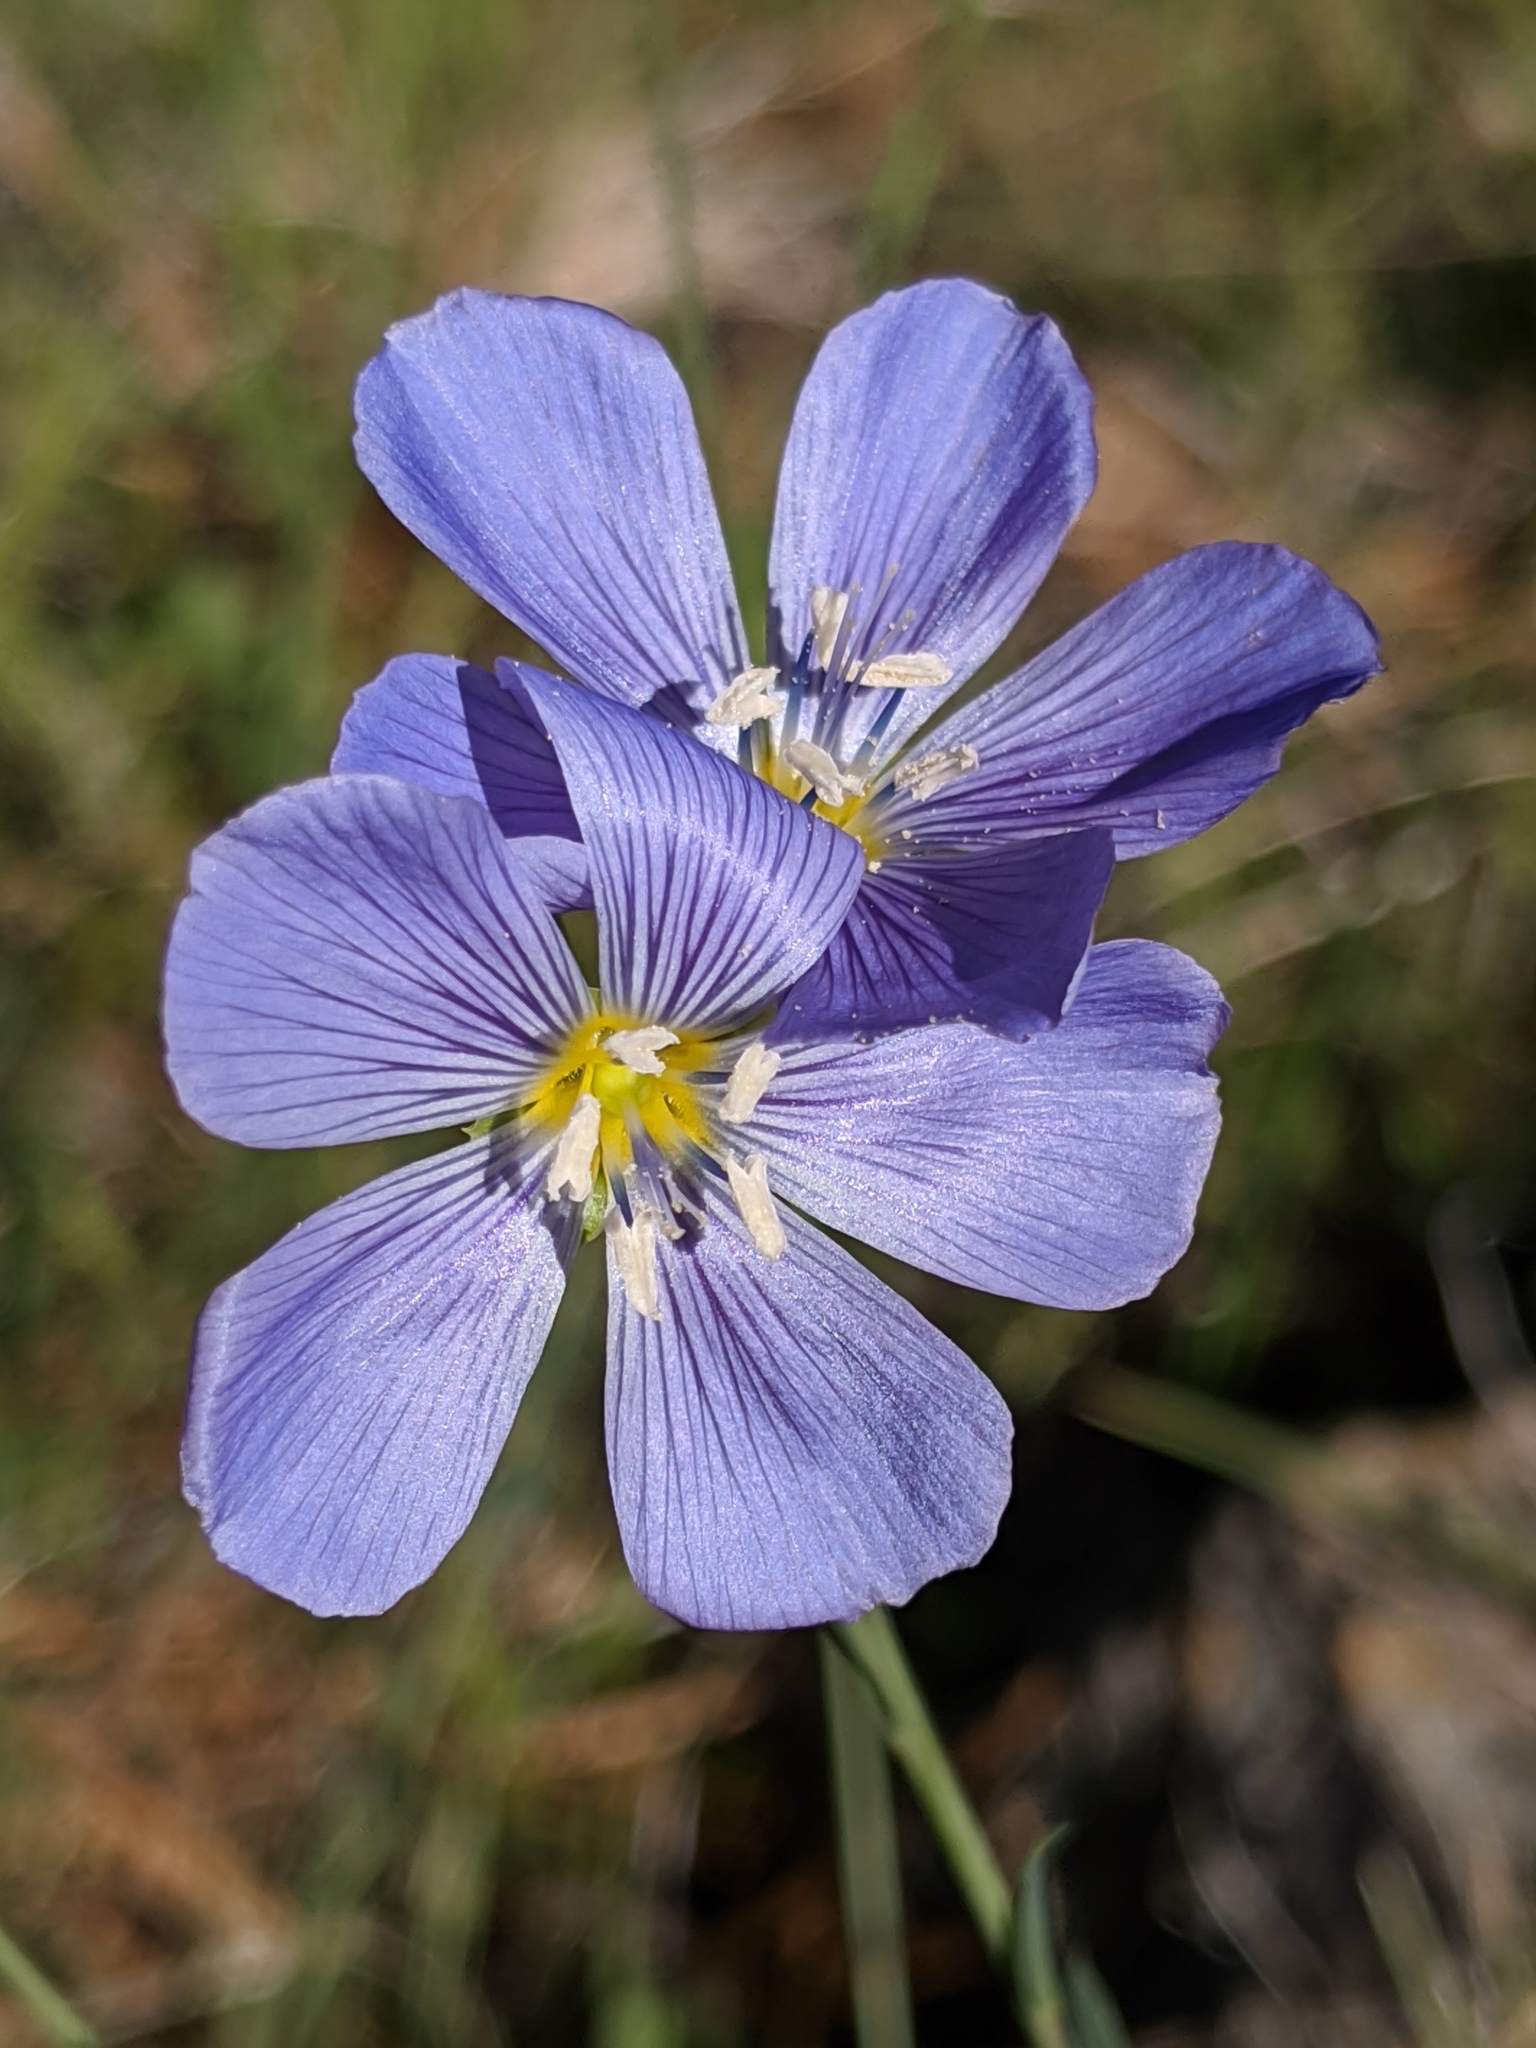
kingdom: Plantae
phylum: Tracheophyta
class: Magnoliopsida
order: Malpighiales
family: Linaceae
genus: Linum
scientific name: Linum lewisii
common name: Prairie flax
